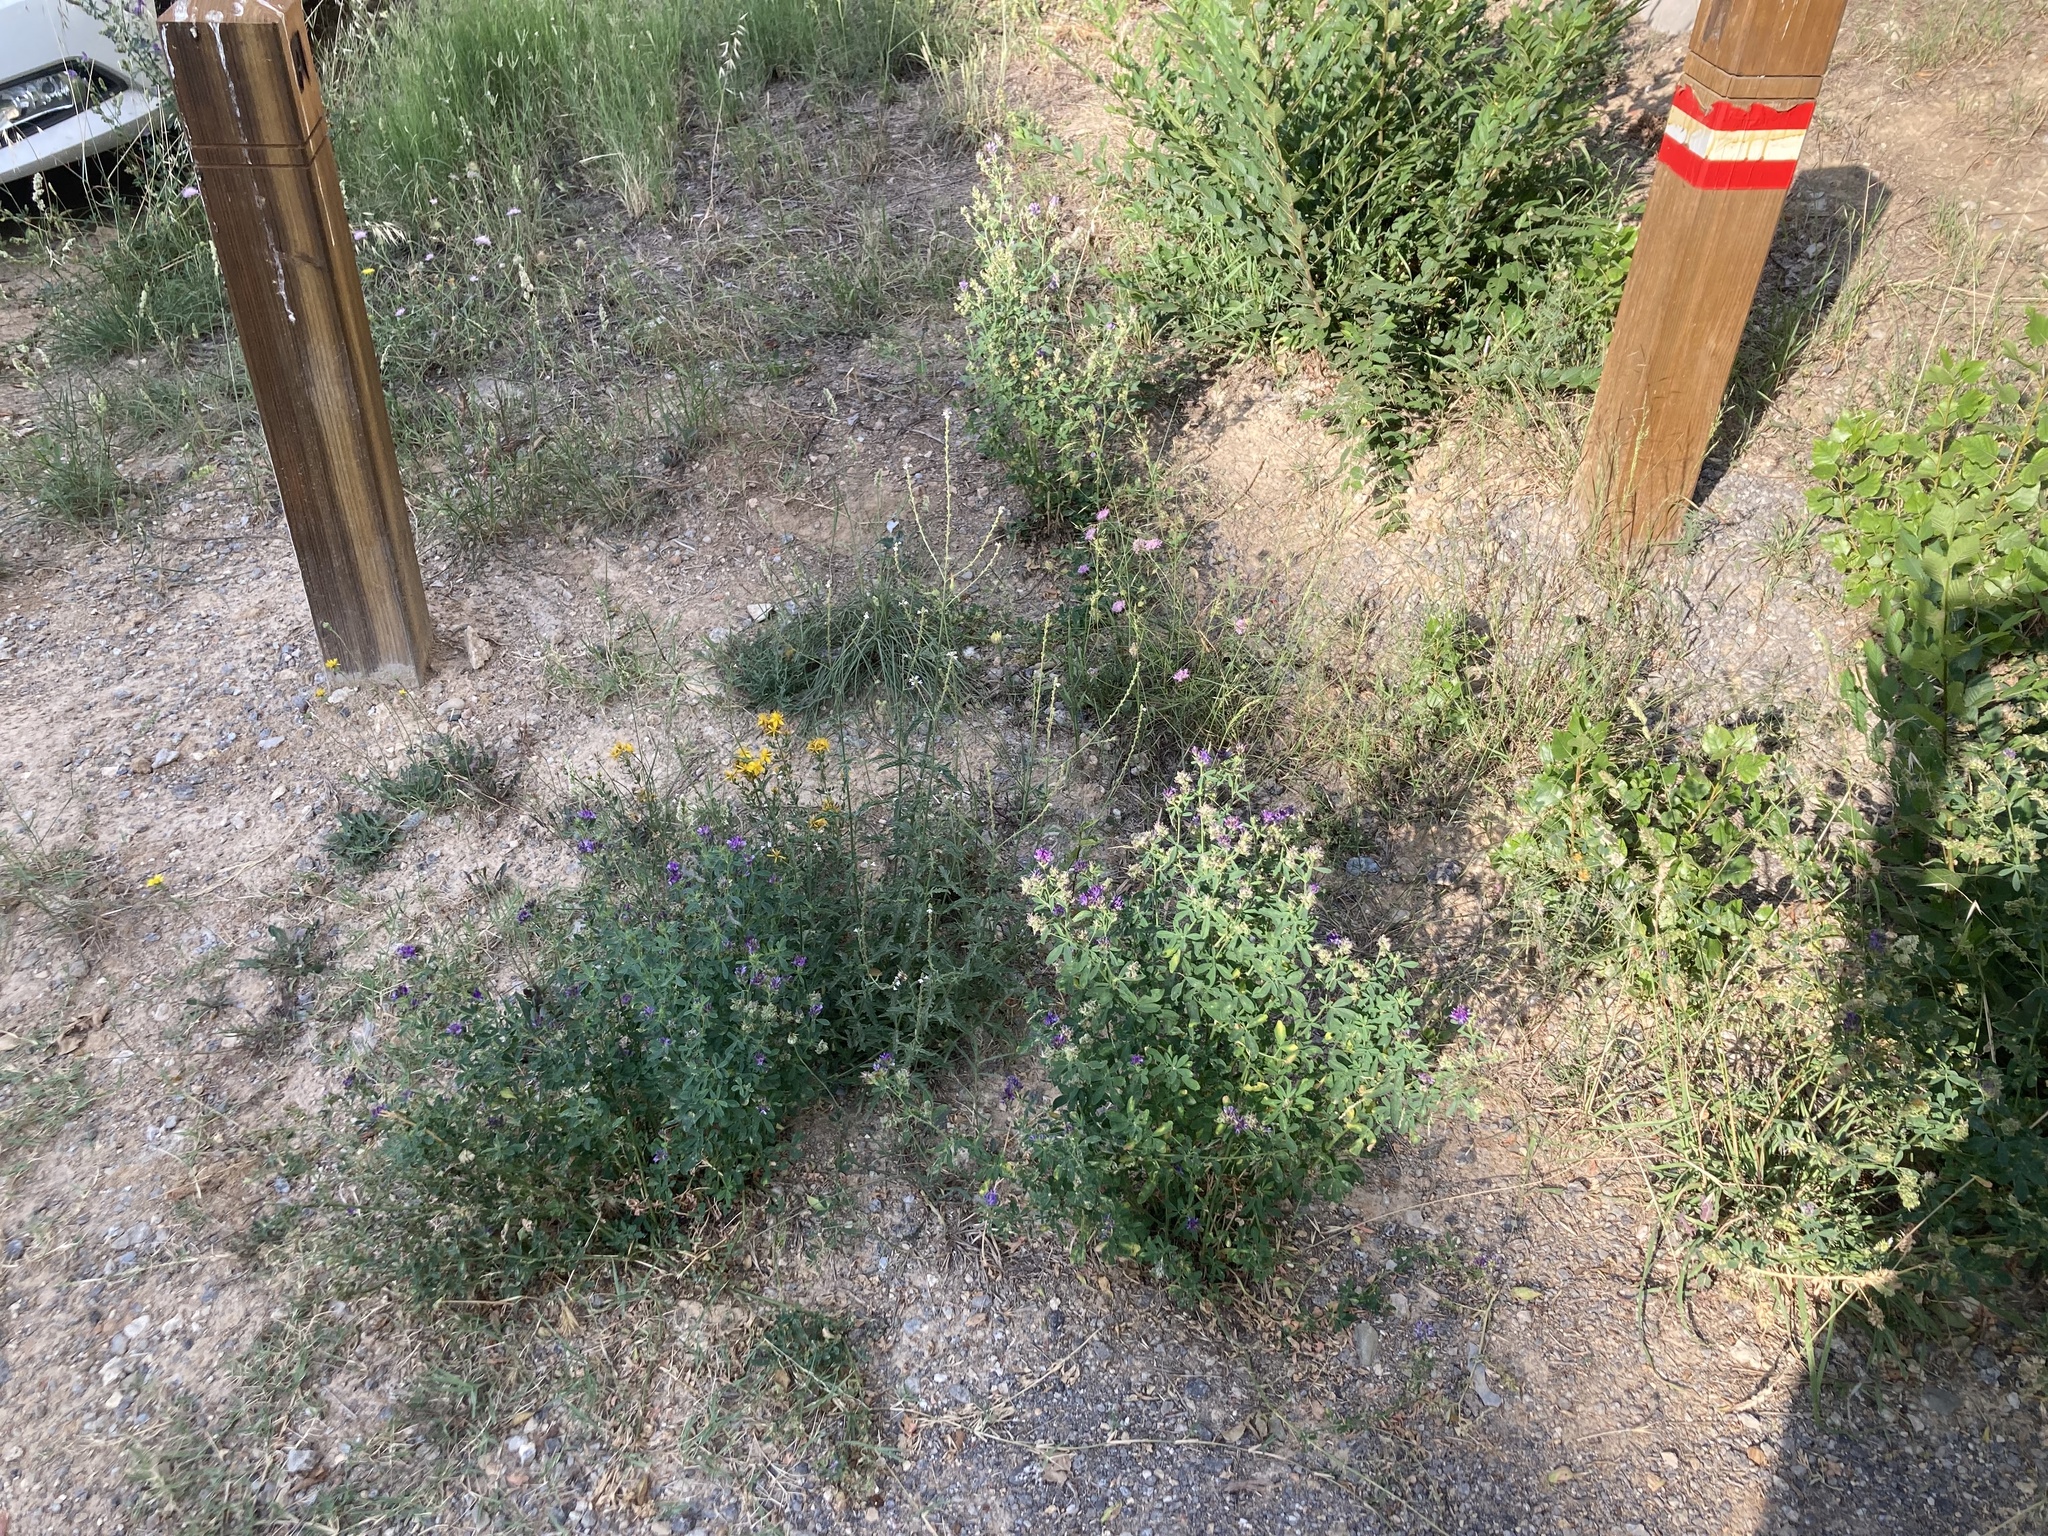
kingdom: Plantae
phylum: Tracheophyta
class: Magnoliopsida
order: Lamiales
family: Verbenaceae
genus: Verbena
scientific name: Verbena officinalis
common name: Vervain
